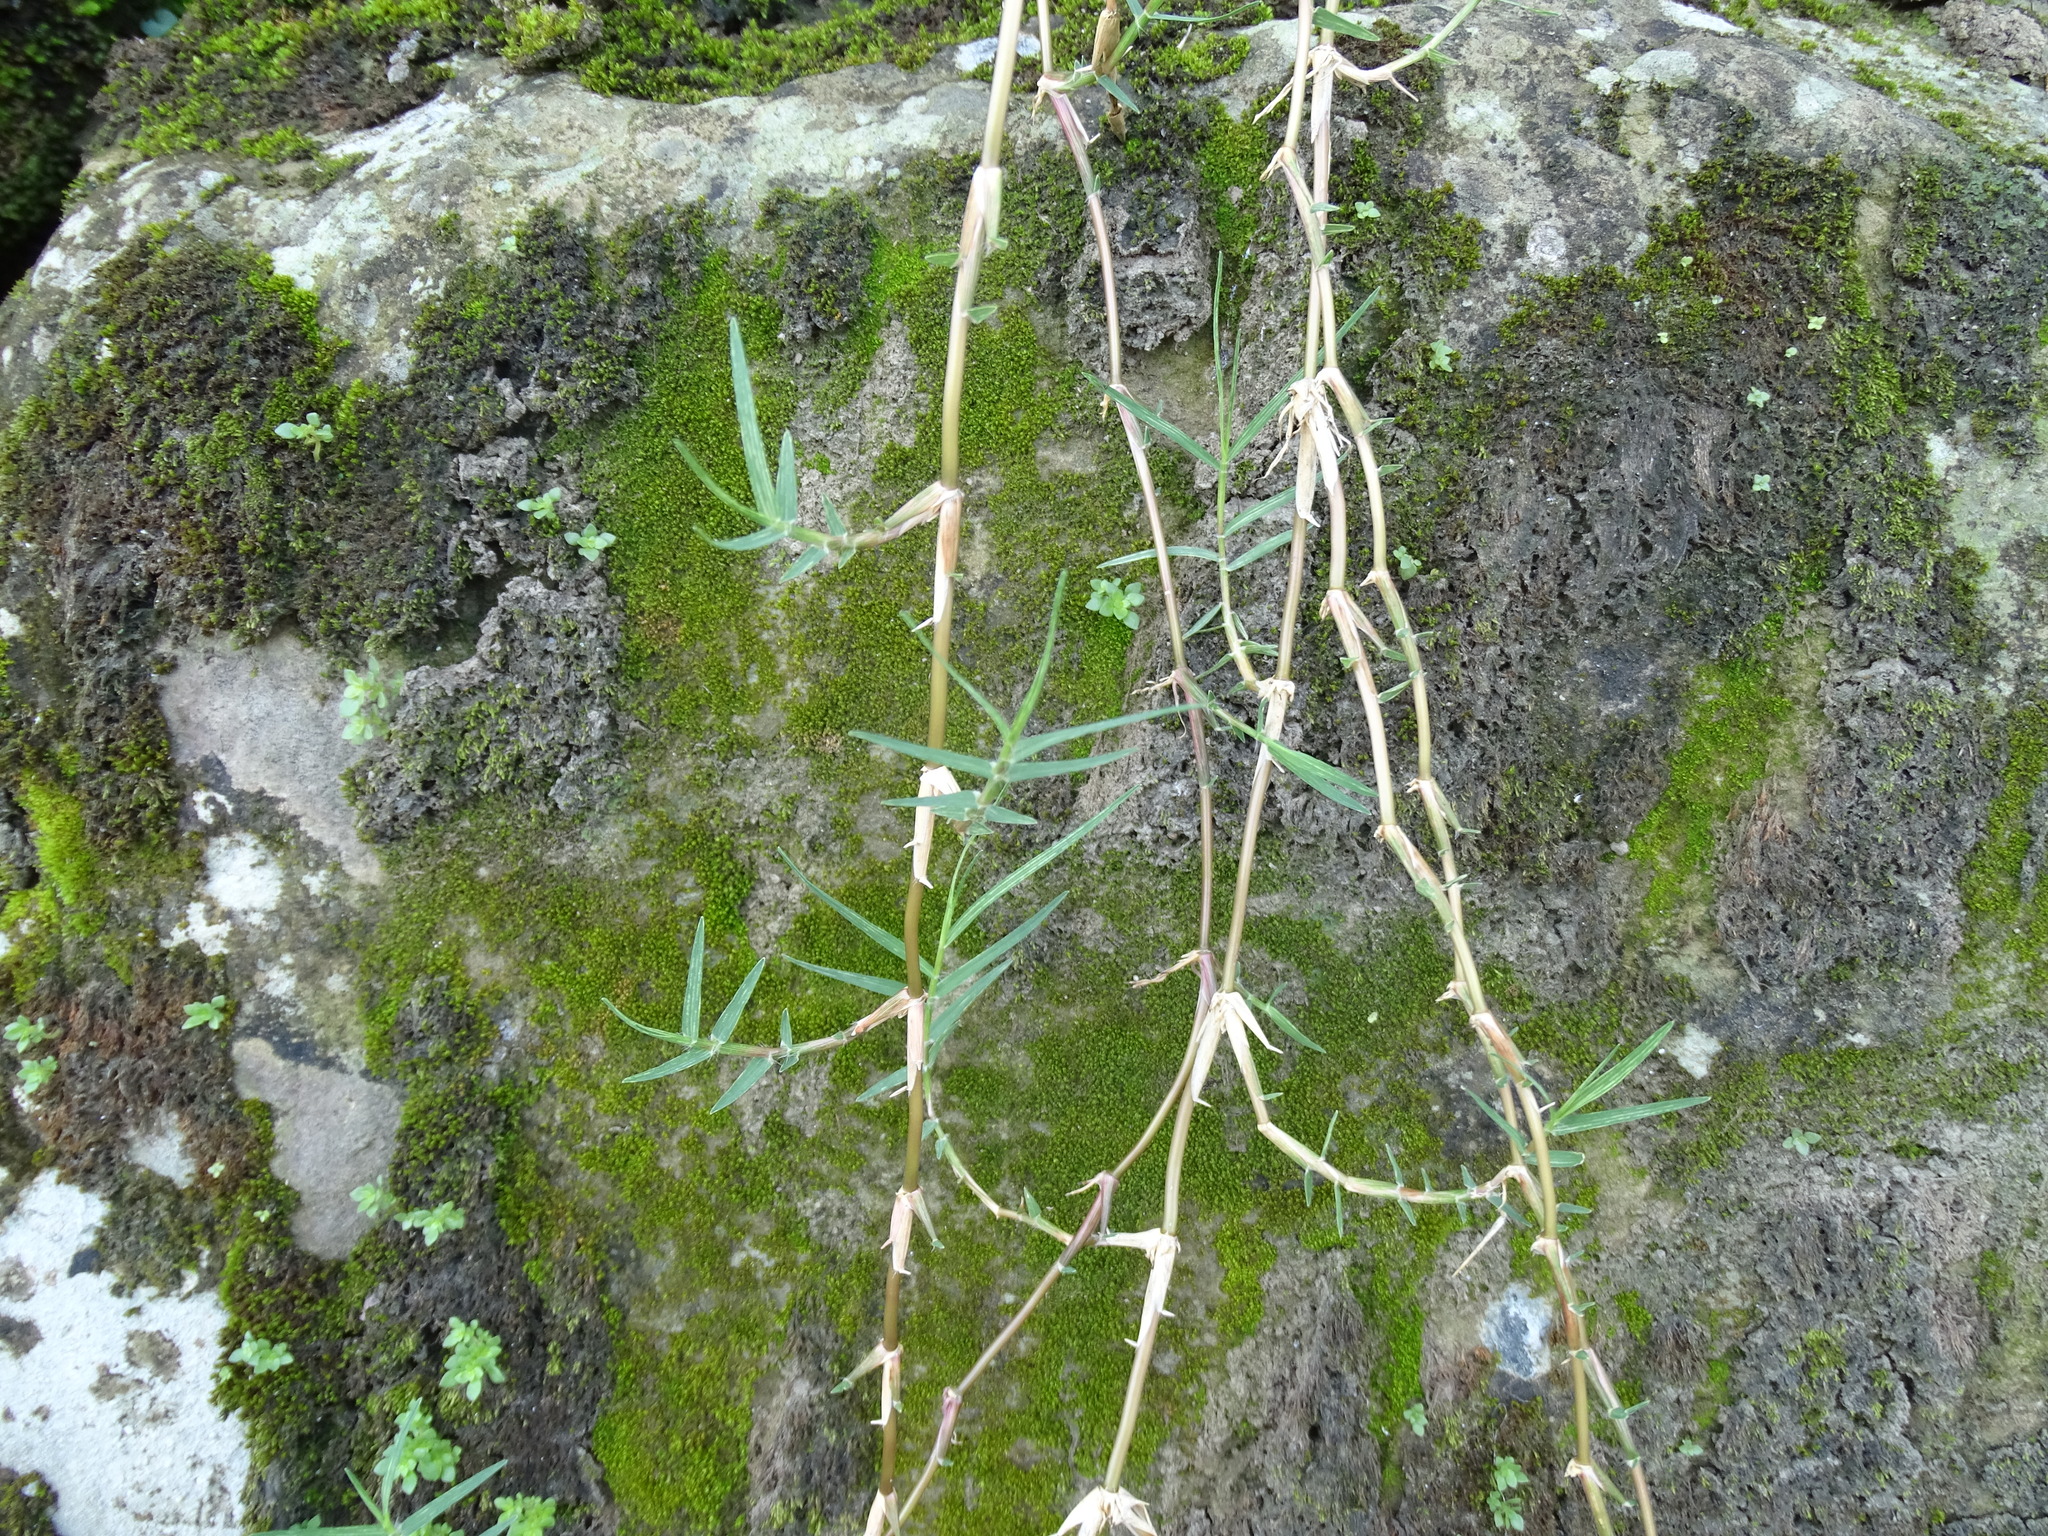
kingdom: Plantae
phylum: Tracheophyta
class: Liliopsida
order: Poales
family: Poaceae
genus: Cynodon
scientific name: Cynodon dactylon
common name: Bermuda grass
